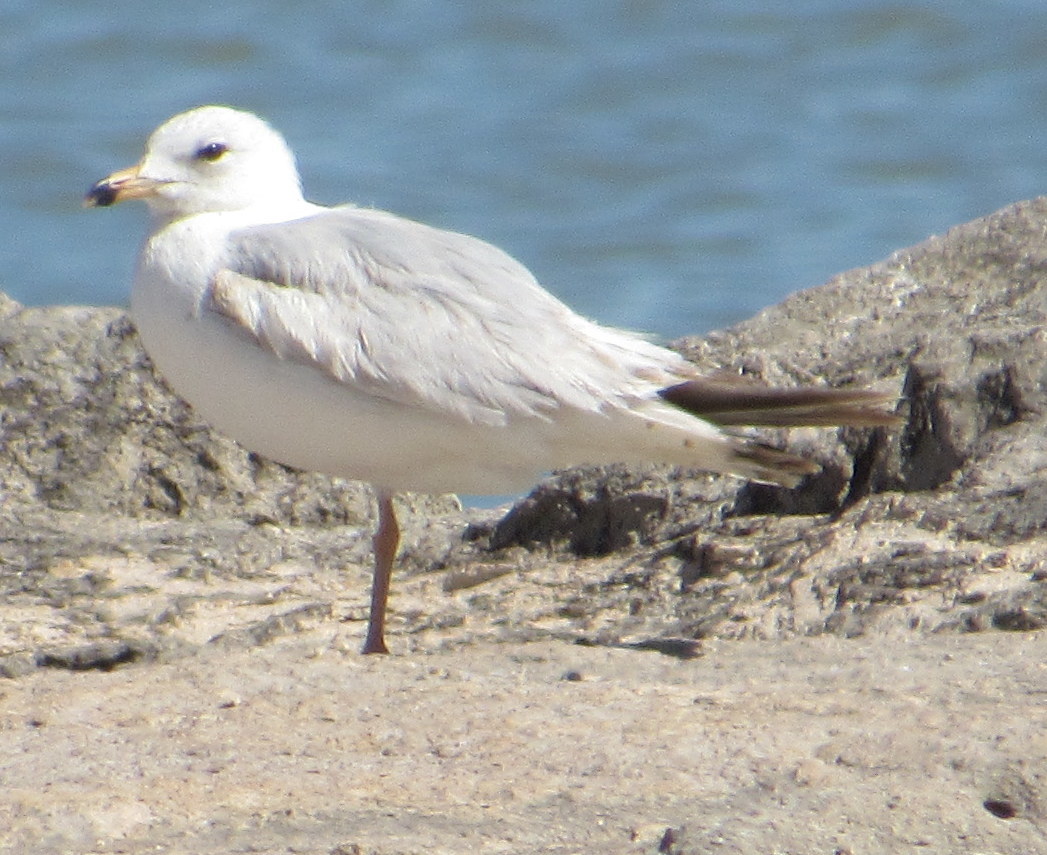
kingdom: Animalia
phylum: Chordata
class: Aves
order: Charadriiformes
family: Laridae
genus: Larus
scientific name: Larus delawarensis
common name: Ring-billed gull
